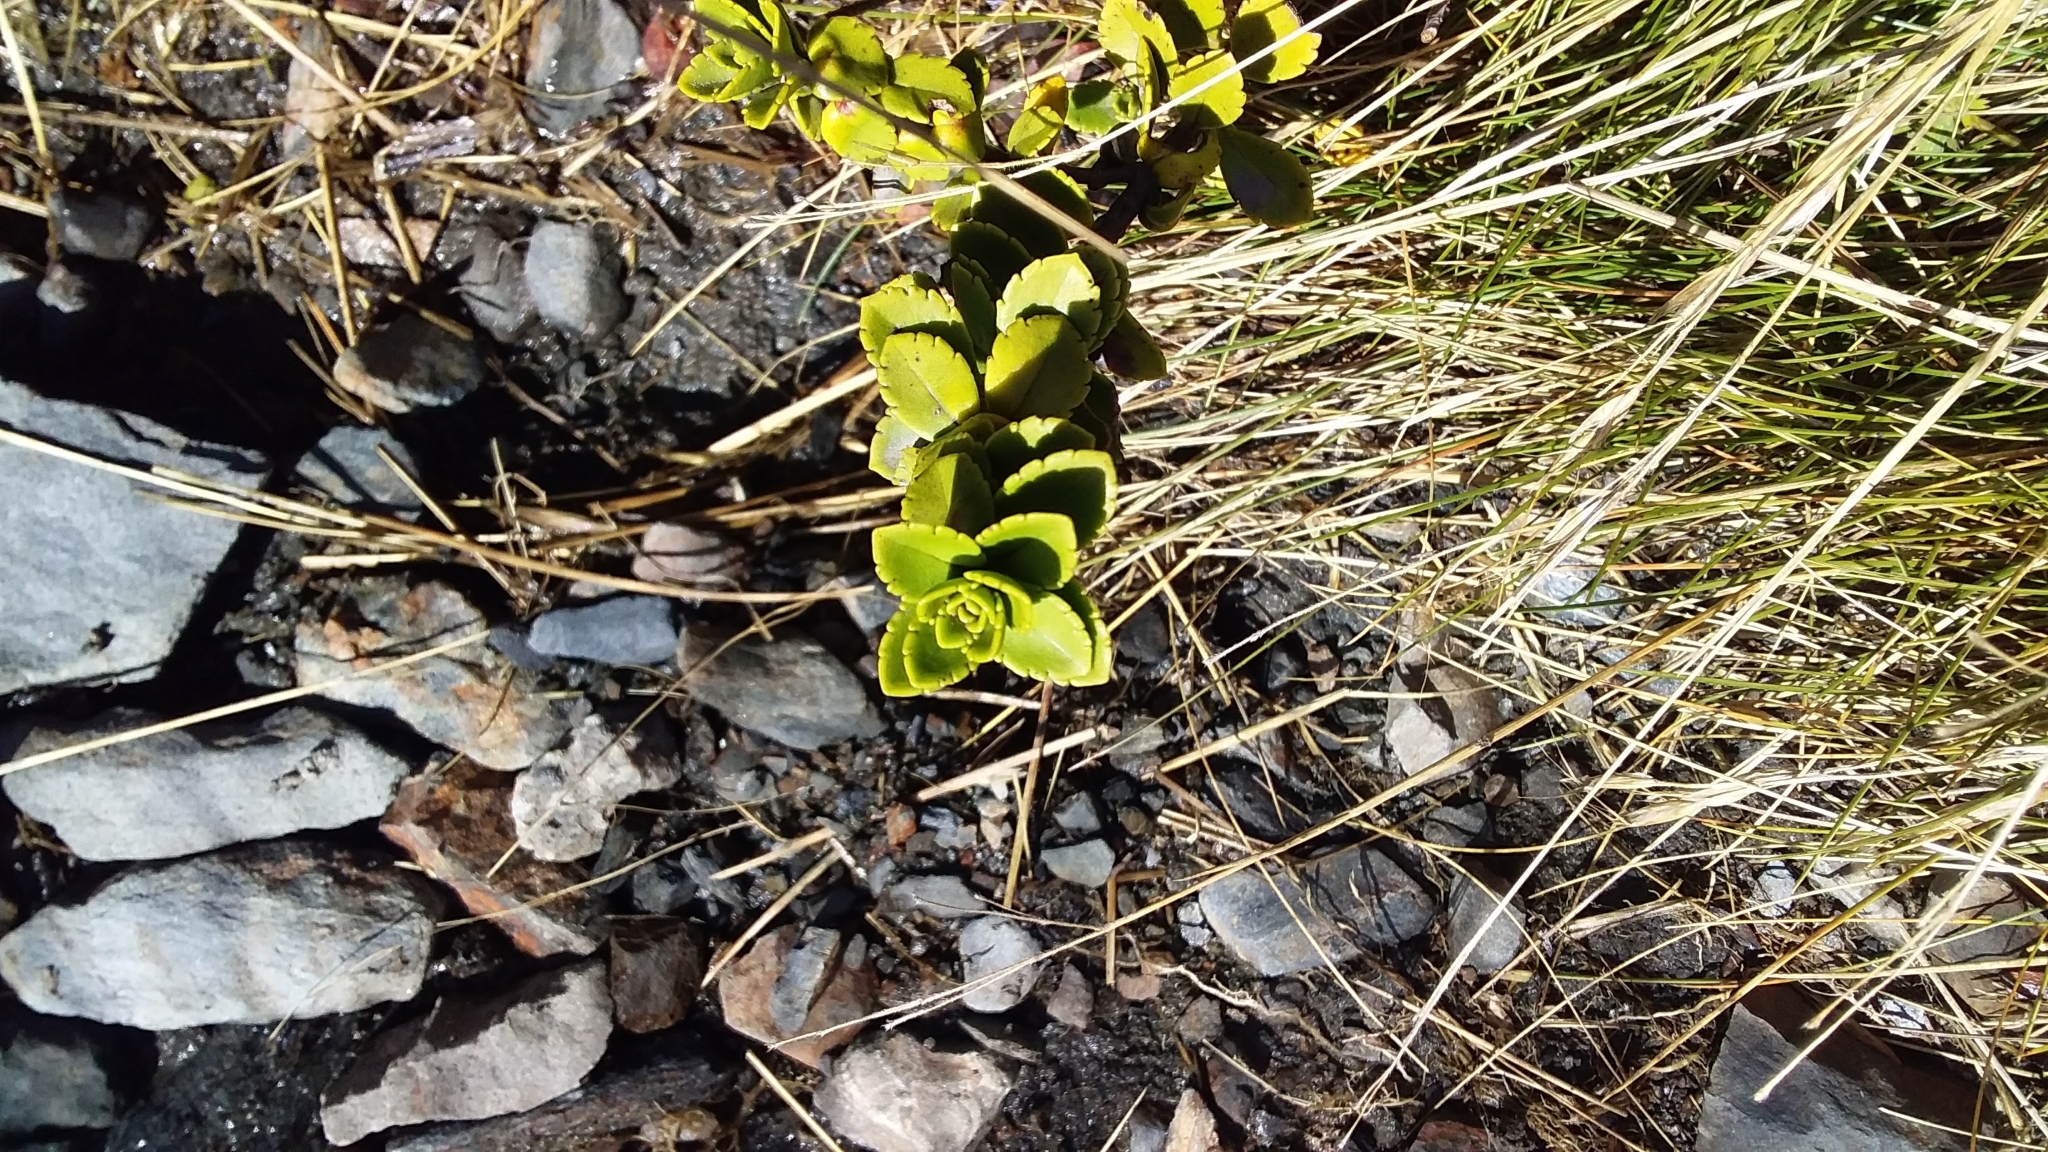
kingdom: Plantae
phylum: Tracheophyta
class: Magnoliopsida
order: Lamiales
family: Plantaginaceae
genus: Veronica
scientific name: Veronica macrantha
